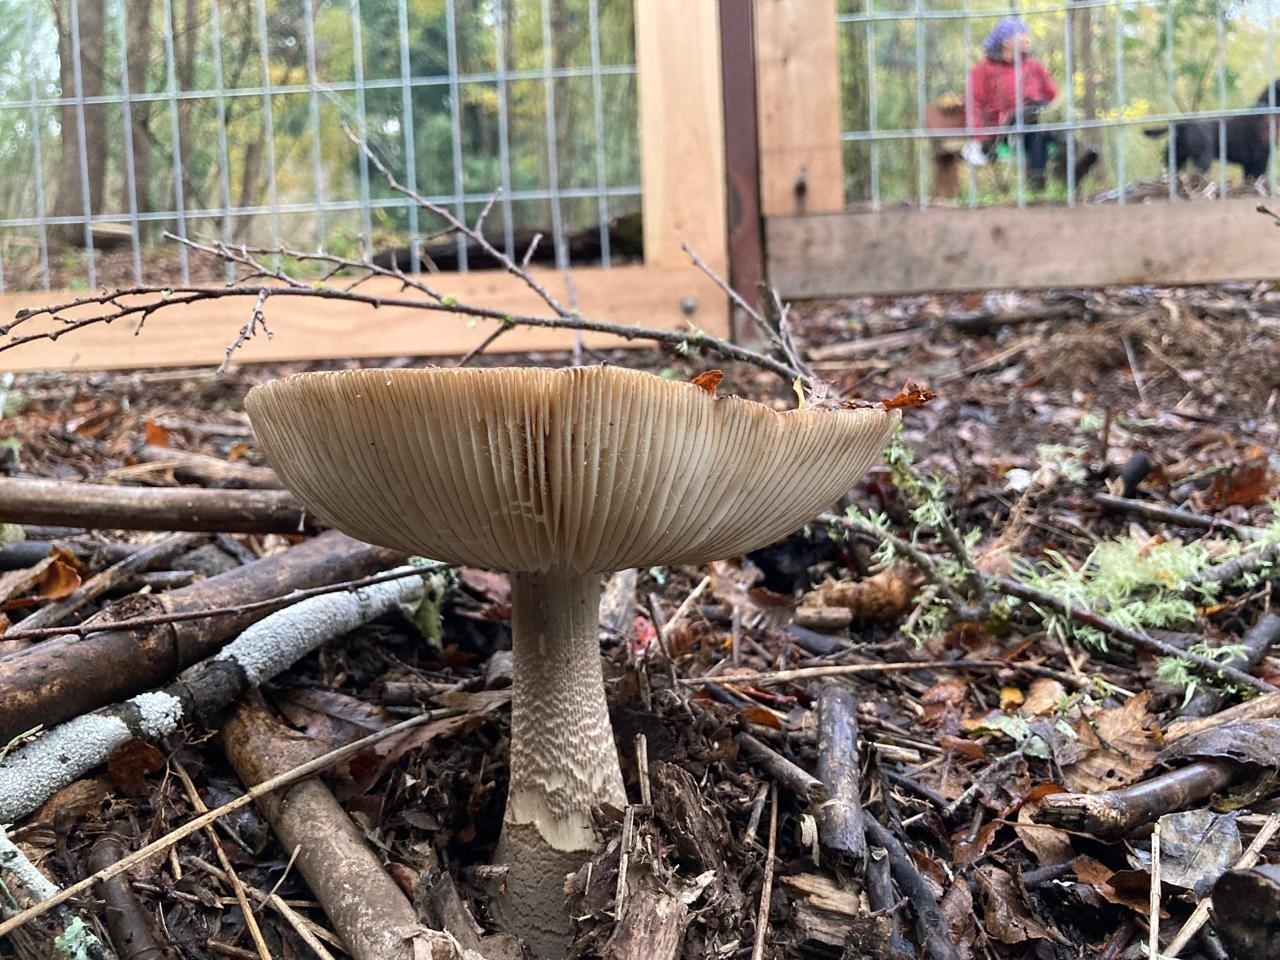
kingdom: Fungi
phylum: Basidiomycota
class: Agaricomycetes
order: Agaricales
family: Amanitaceae
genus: Amanita
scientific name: Amanita rubescens
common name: Blusher
